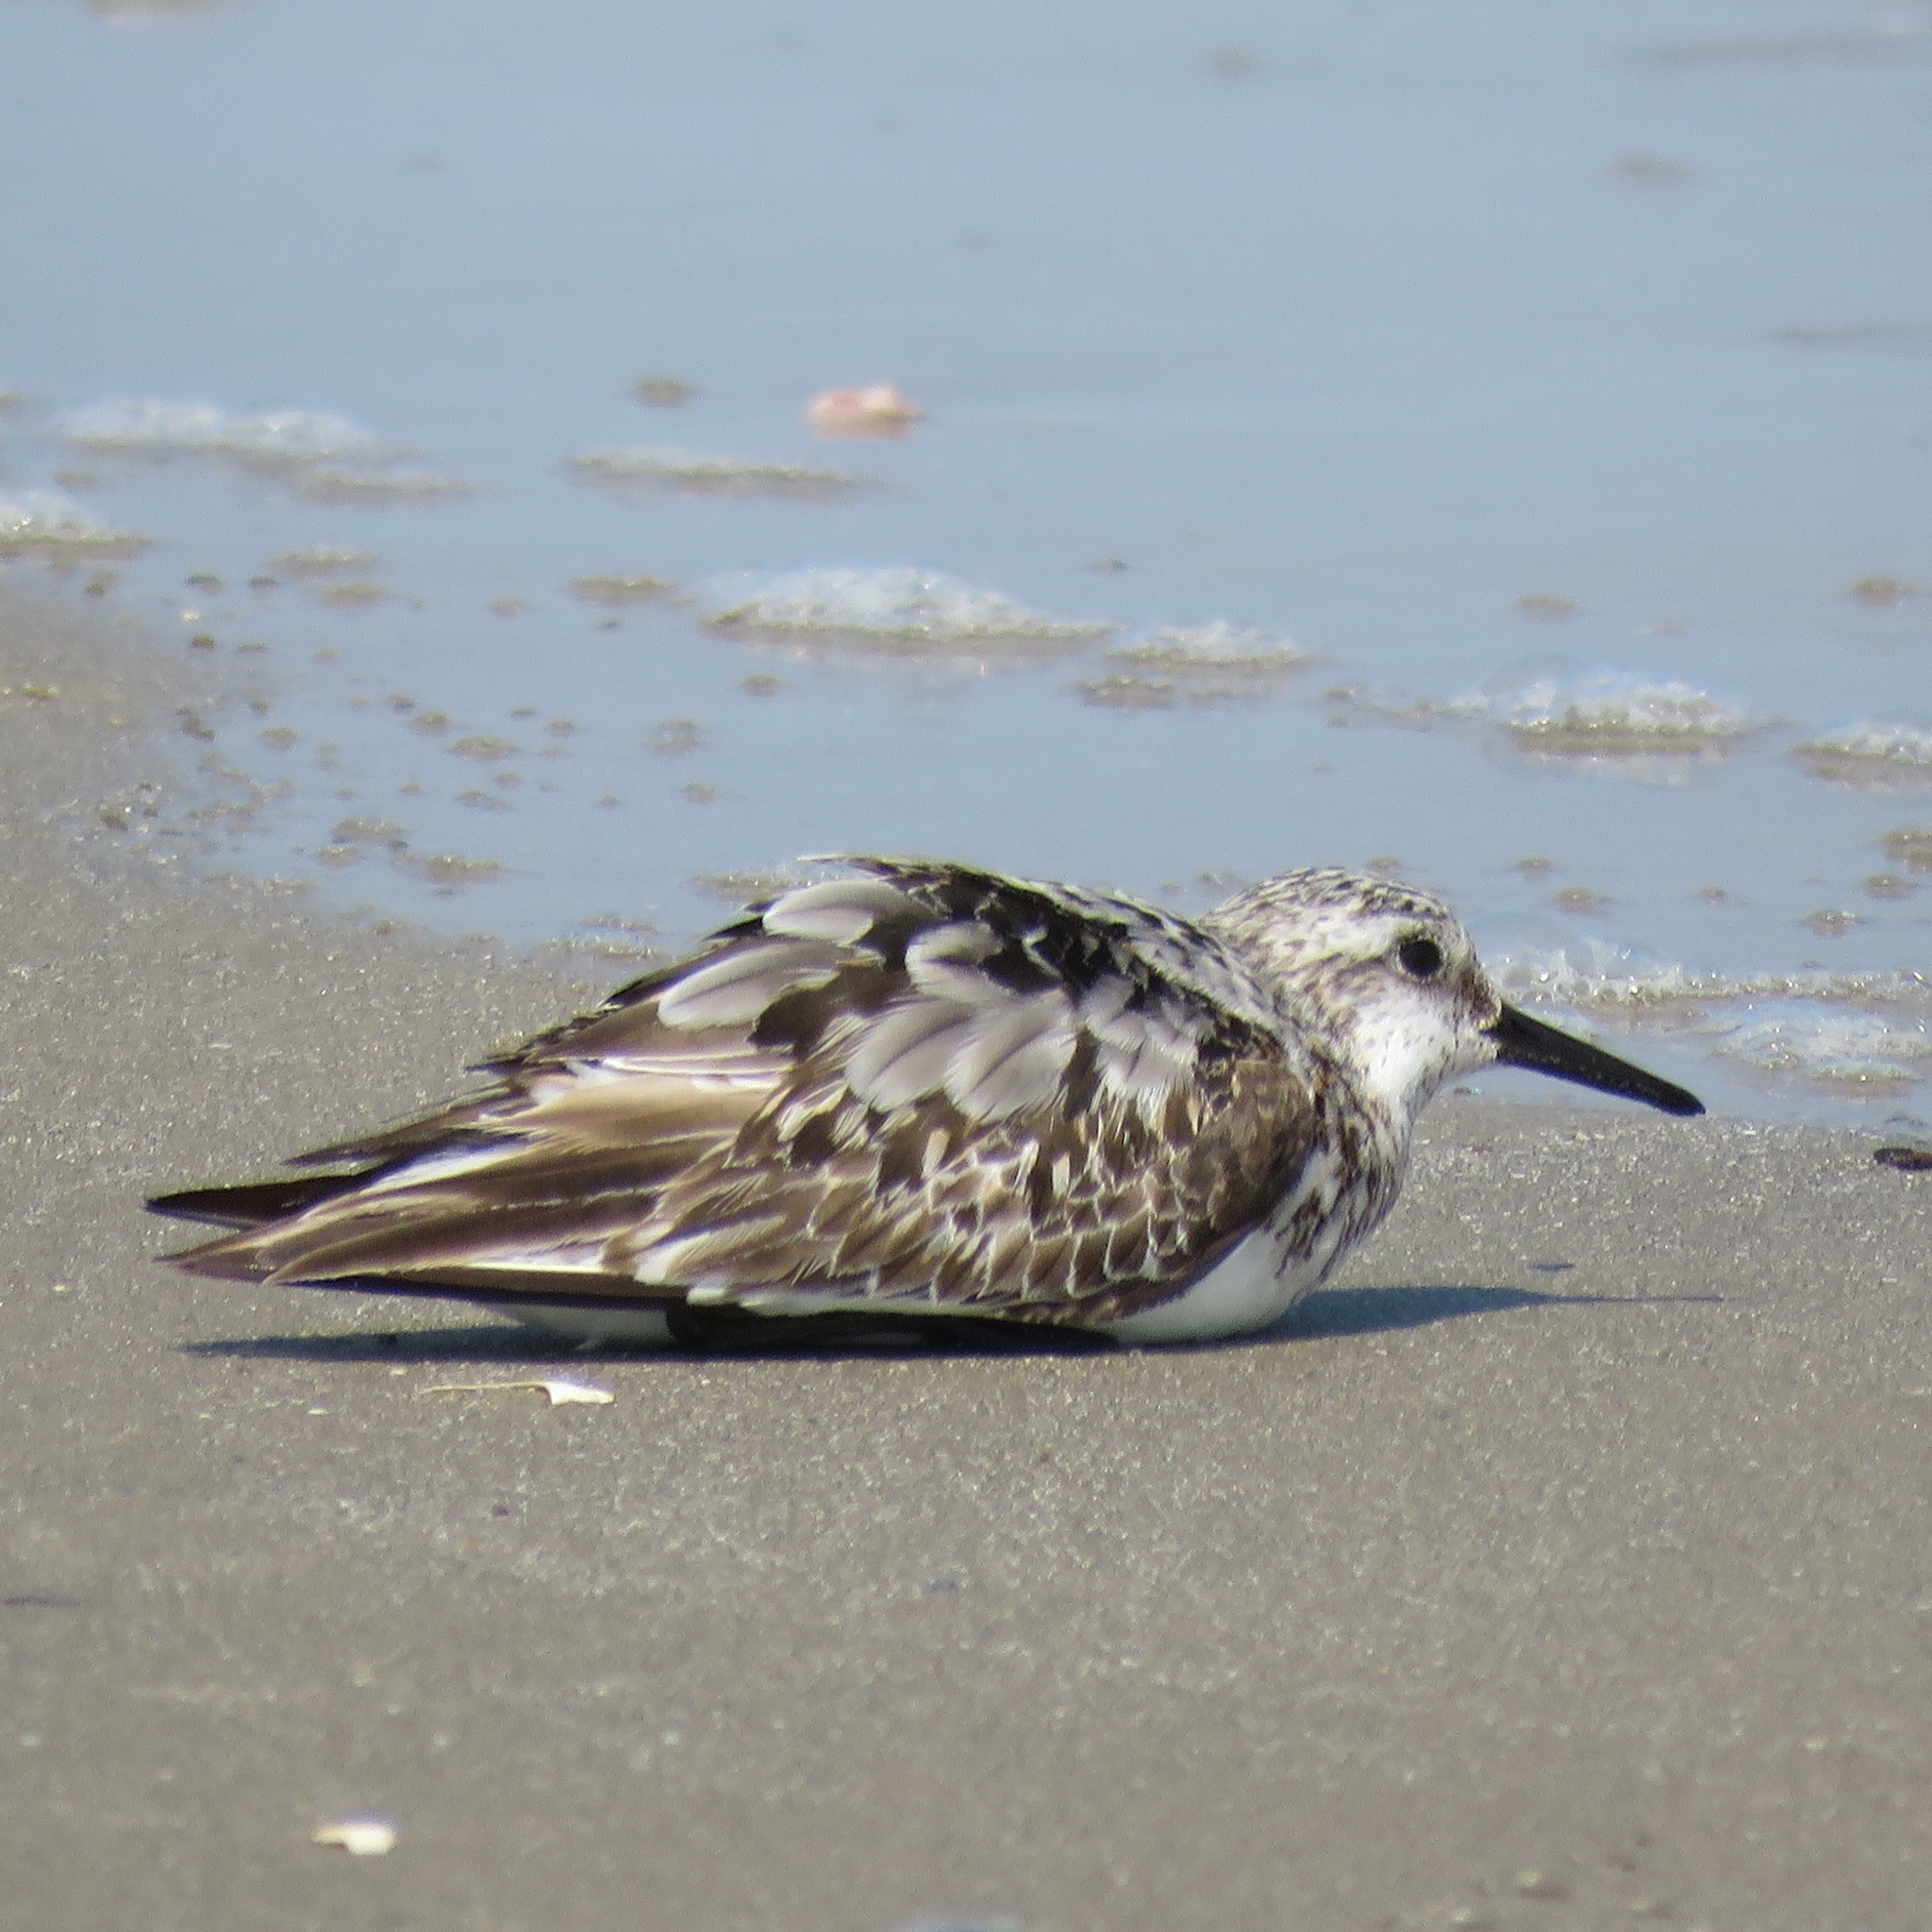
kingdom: Animalia
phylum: Chordata
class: Aves
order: Charadriiformes
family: Scolopacidae
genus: Calidris
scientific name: Calidris alba
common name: Sanderling
